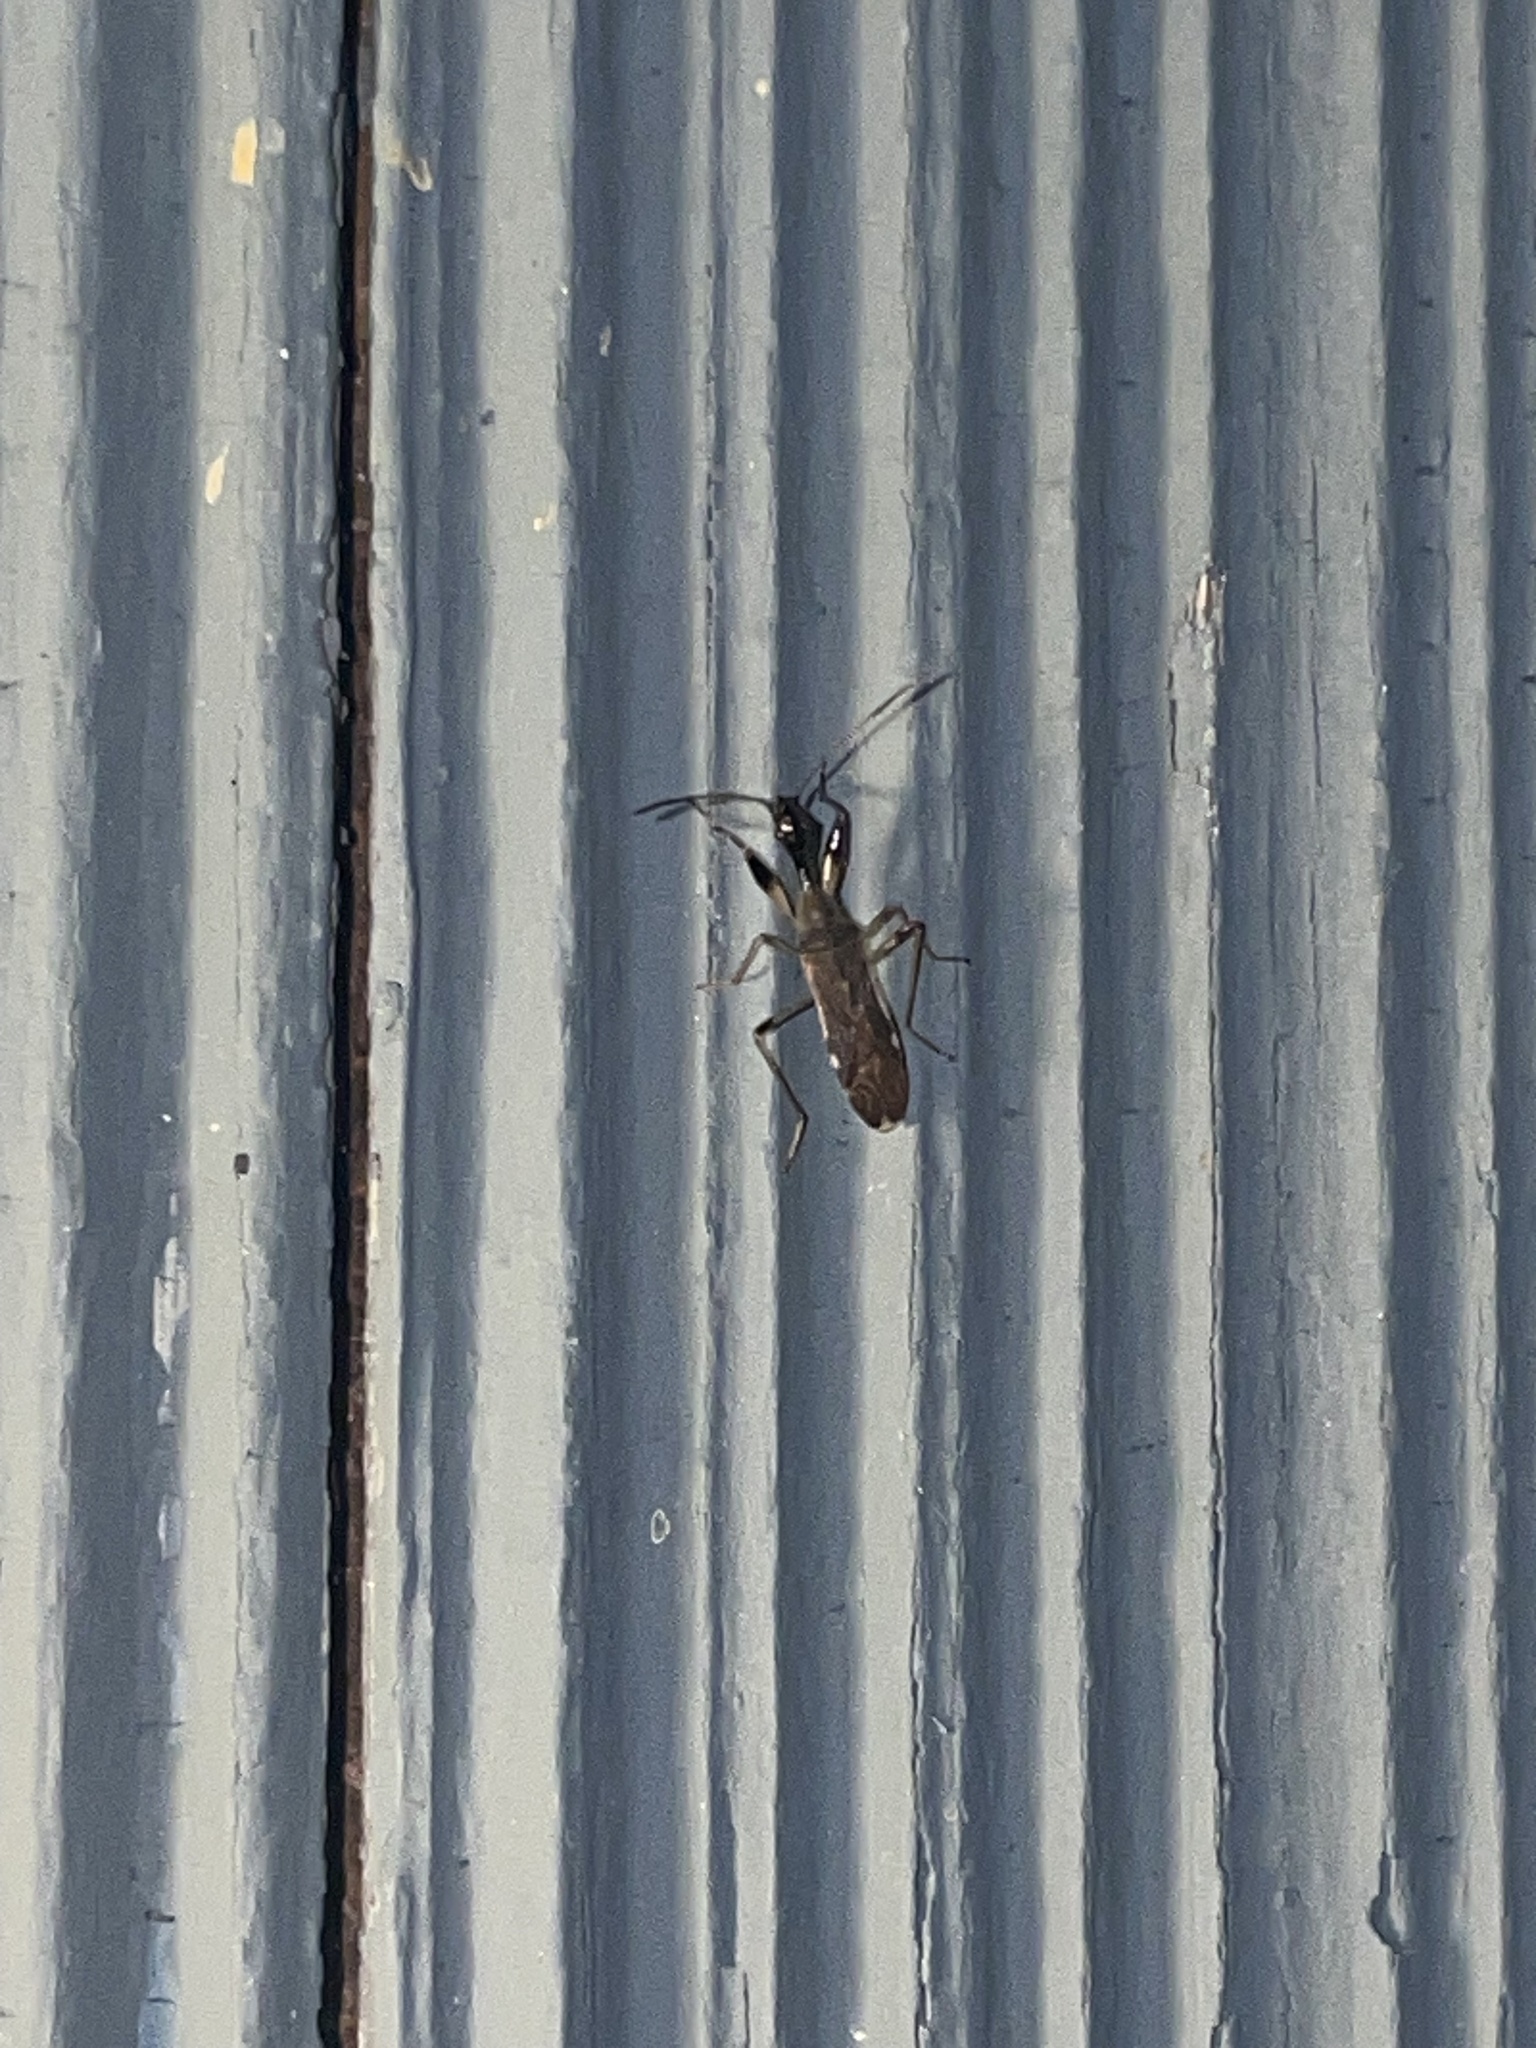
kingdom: Animalia
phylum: Arthropoda
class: Insecta
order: Hemiptera
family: Rhyparochromidae
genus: Myodocha
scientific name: Myodocha serripes
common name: Long-necked seed bug
